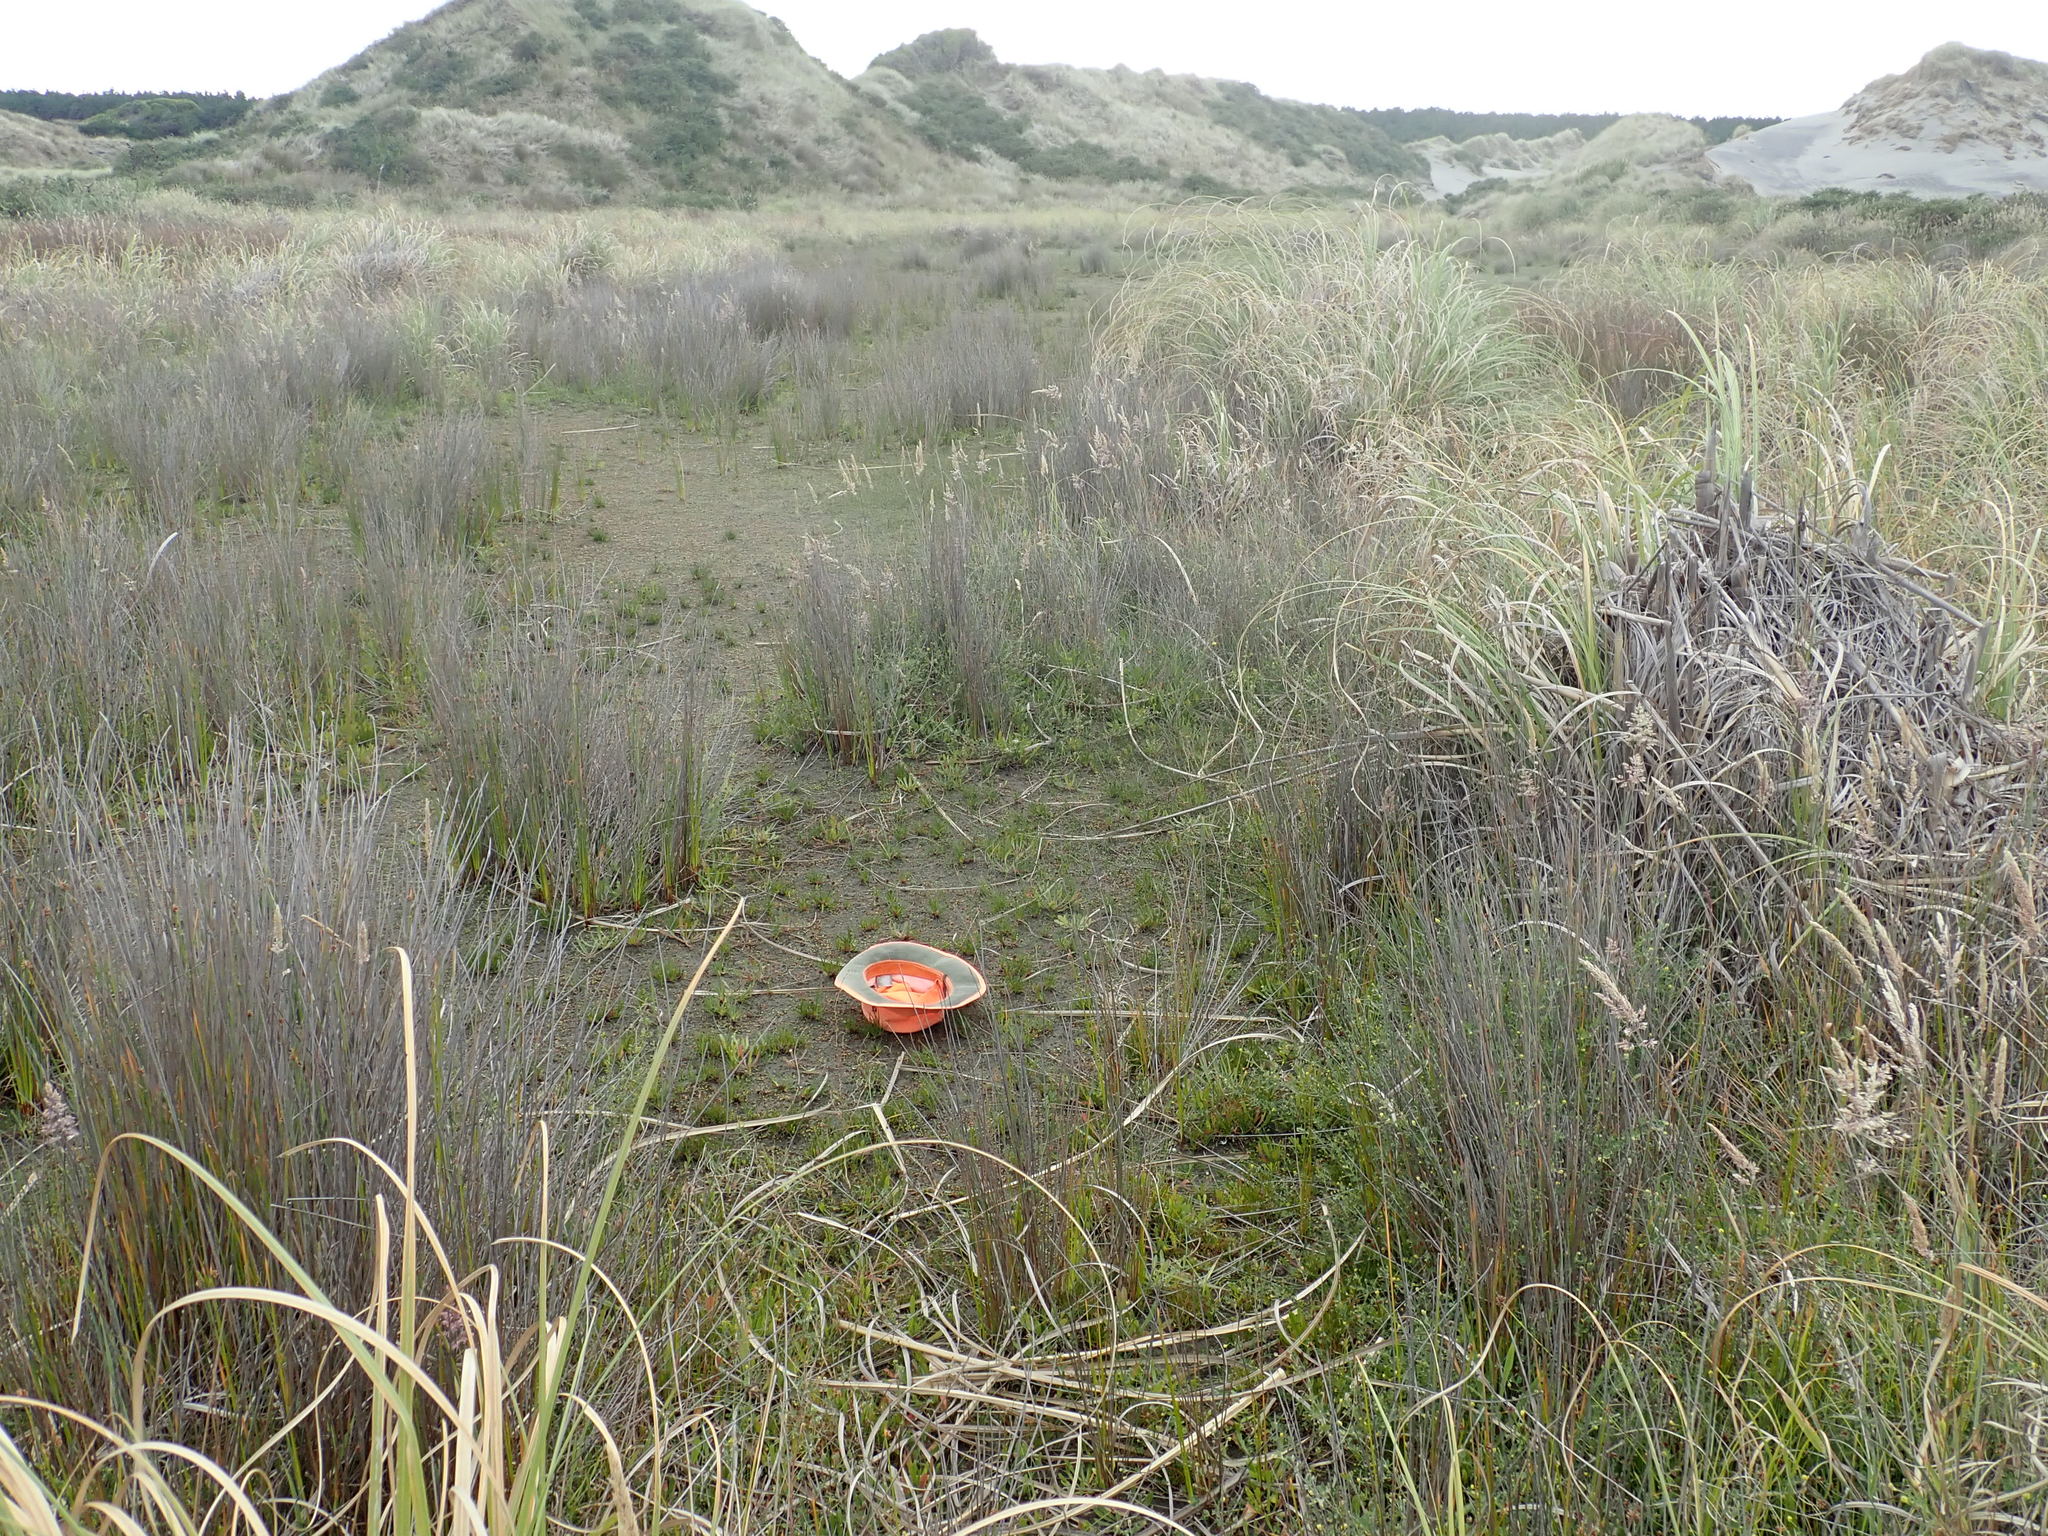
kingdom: Plantae
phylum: Tracheophyta
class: Magnoliopsida
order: Apiales
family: Apiaceae
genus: Lilaeopsis
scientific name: Lilaeopsis novae-zelandiae
